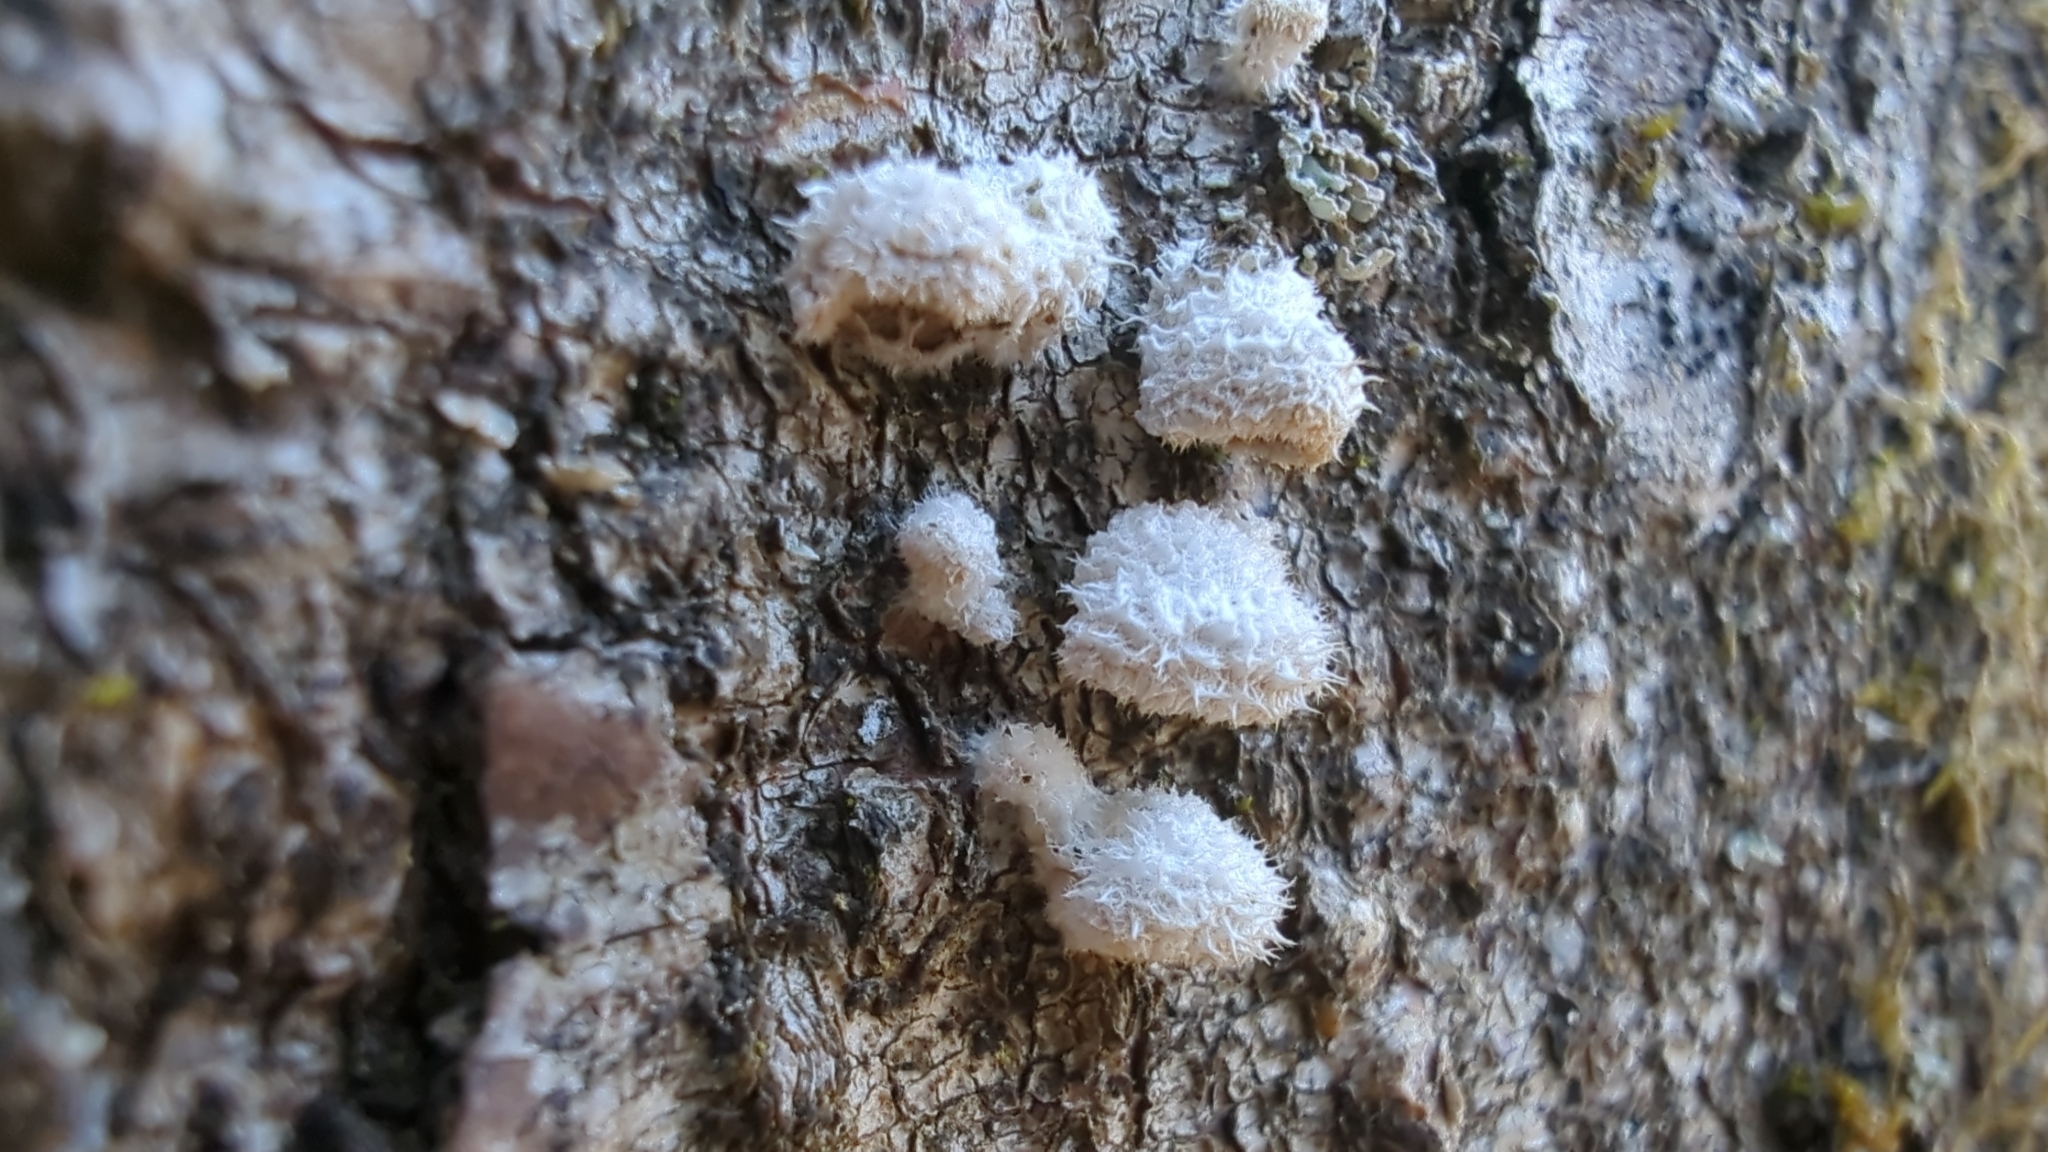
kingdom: Fungi
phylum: Basidiomycota
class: Agaricomycetes
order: Agaricales
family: Schizophyllaceae
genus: Schizophyllum
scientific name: Schizophyllum commune
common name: Common porecrust
